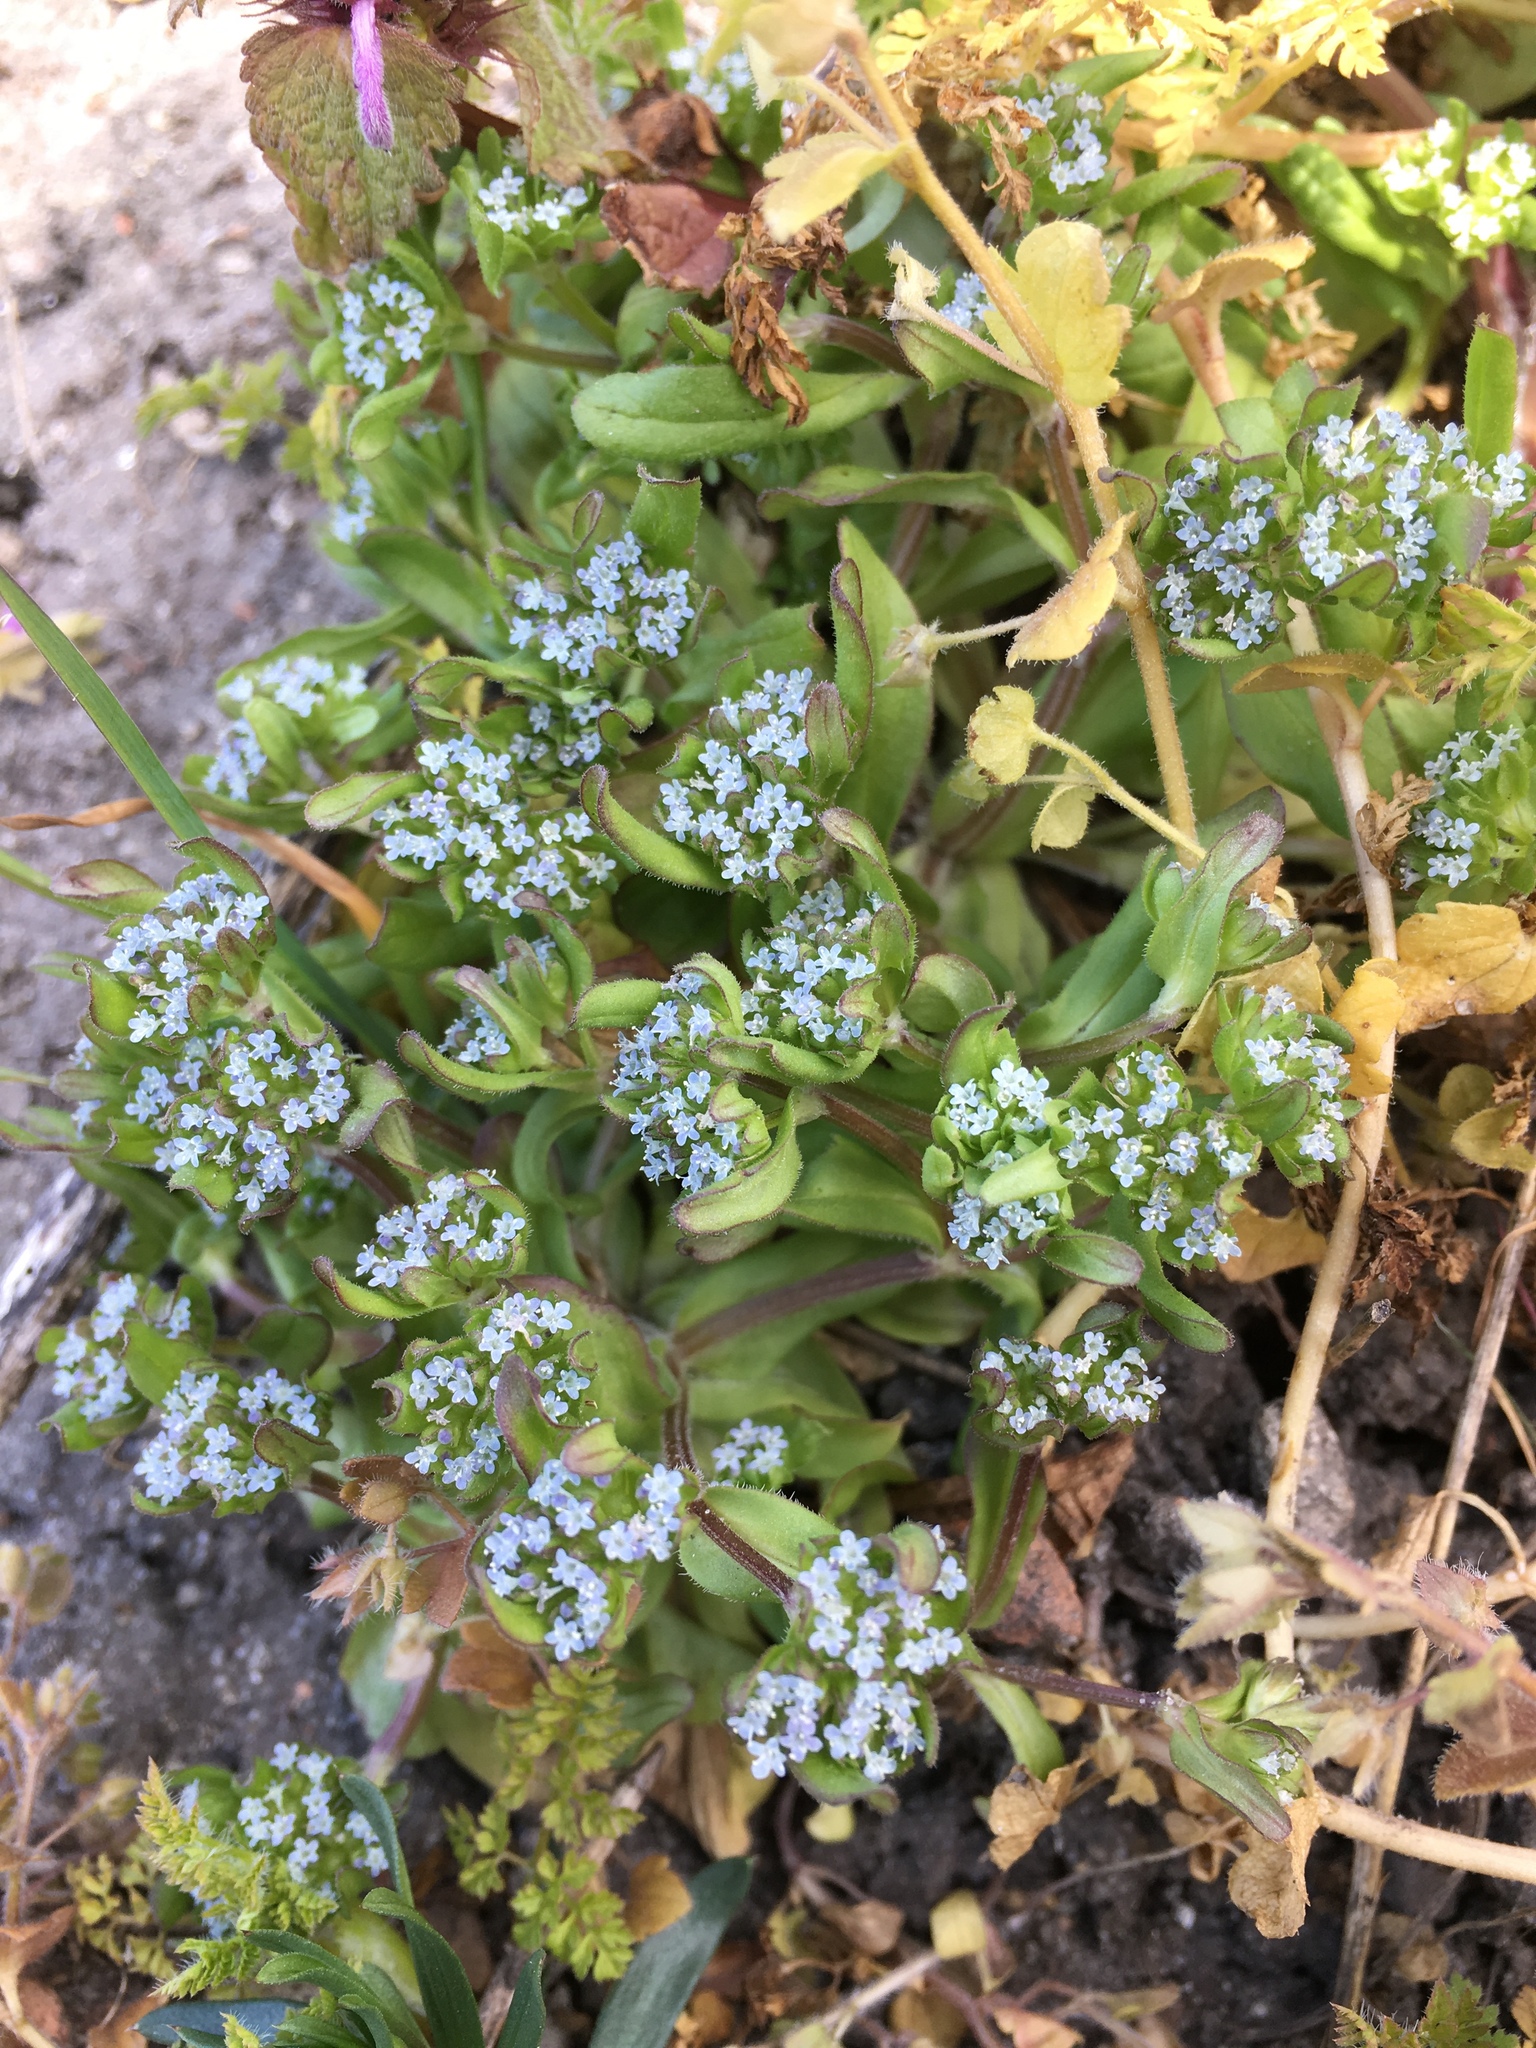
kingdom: Plantae
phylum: Tracheophyta
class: Magnoliopsida
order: Dipsacales
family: Caprifoliaceae
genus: Valerianella
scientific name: Valerianella locusta
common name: Common cornsalad
